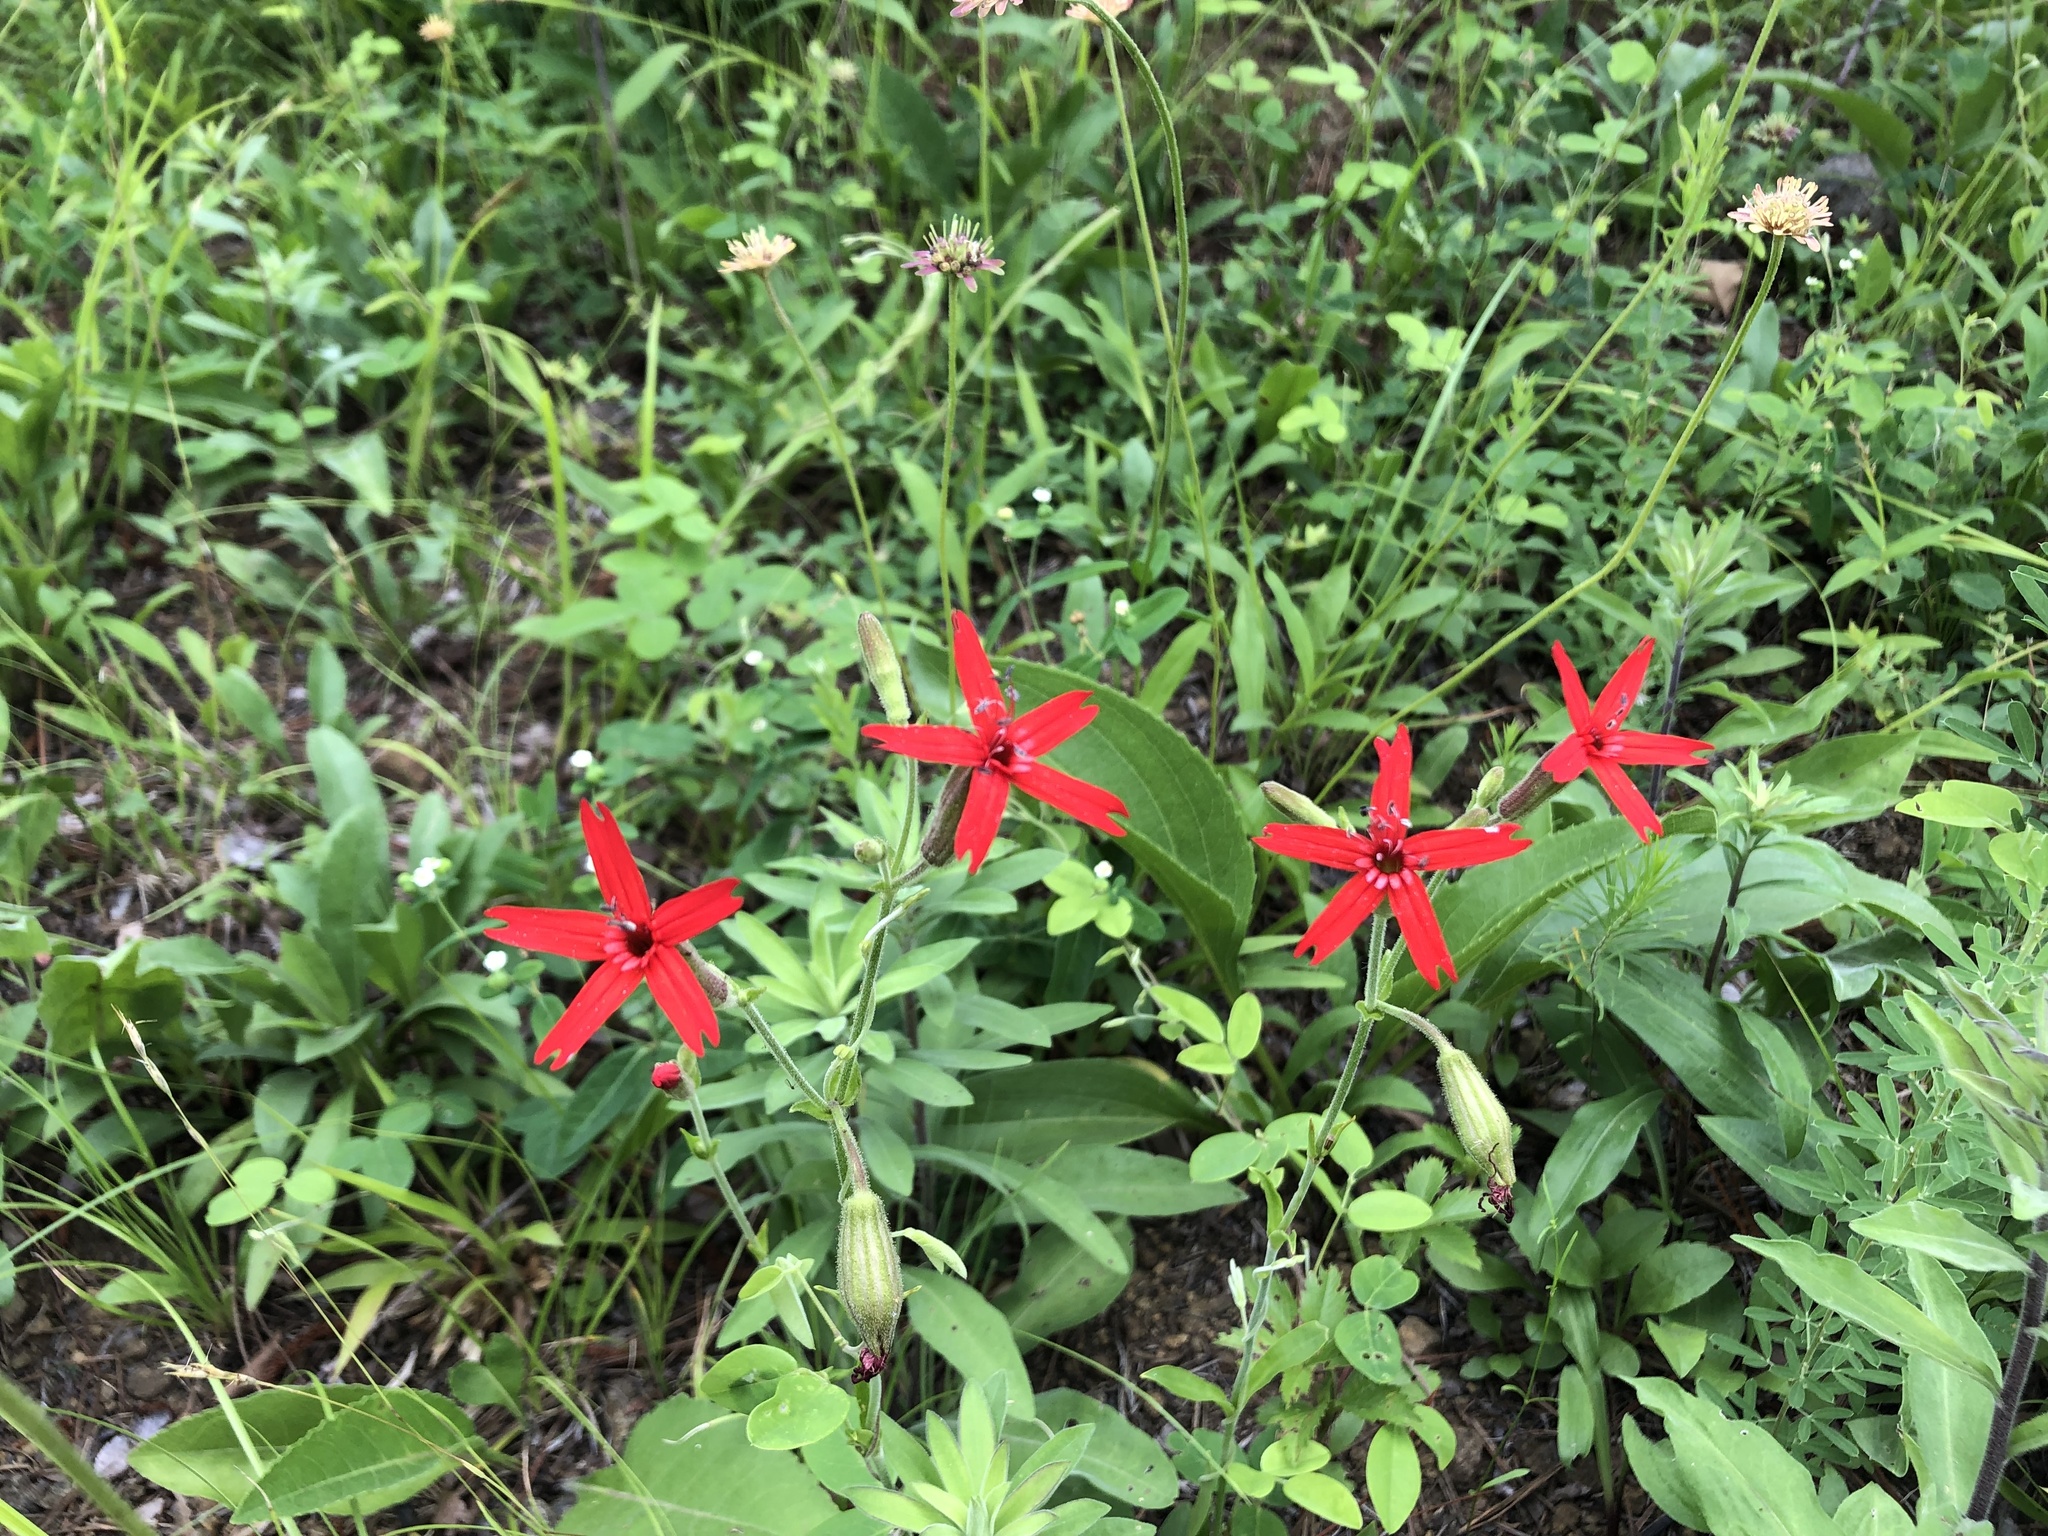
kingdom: Plantae
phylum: Tracheophyta
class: Magnoliopsida
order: Caryophyllales
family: Caryophyllaceae
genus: Silene
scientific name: Silene virginica
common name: Fire-pink
